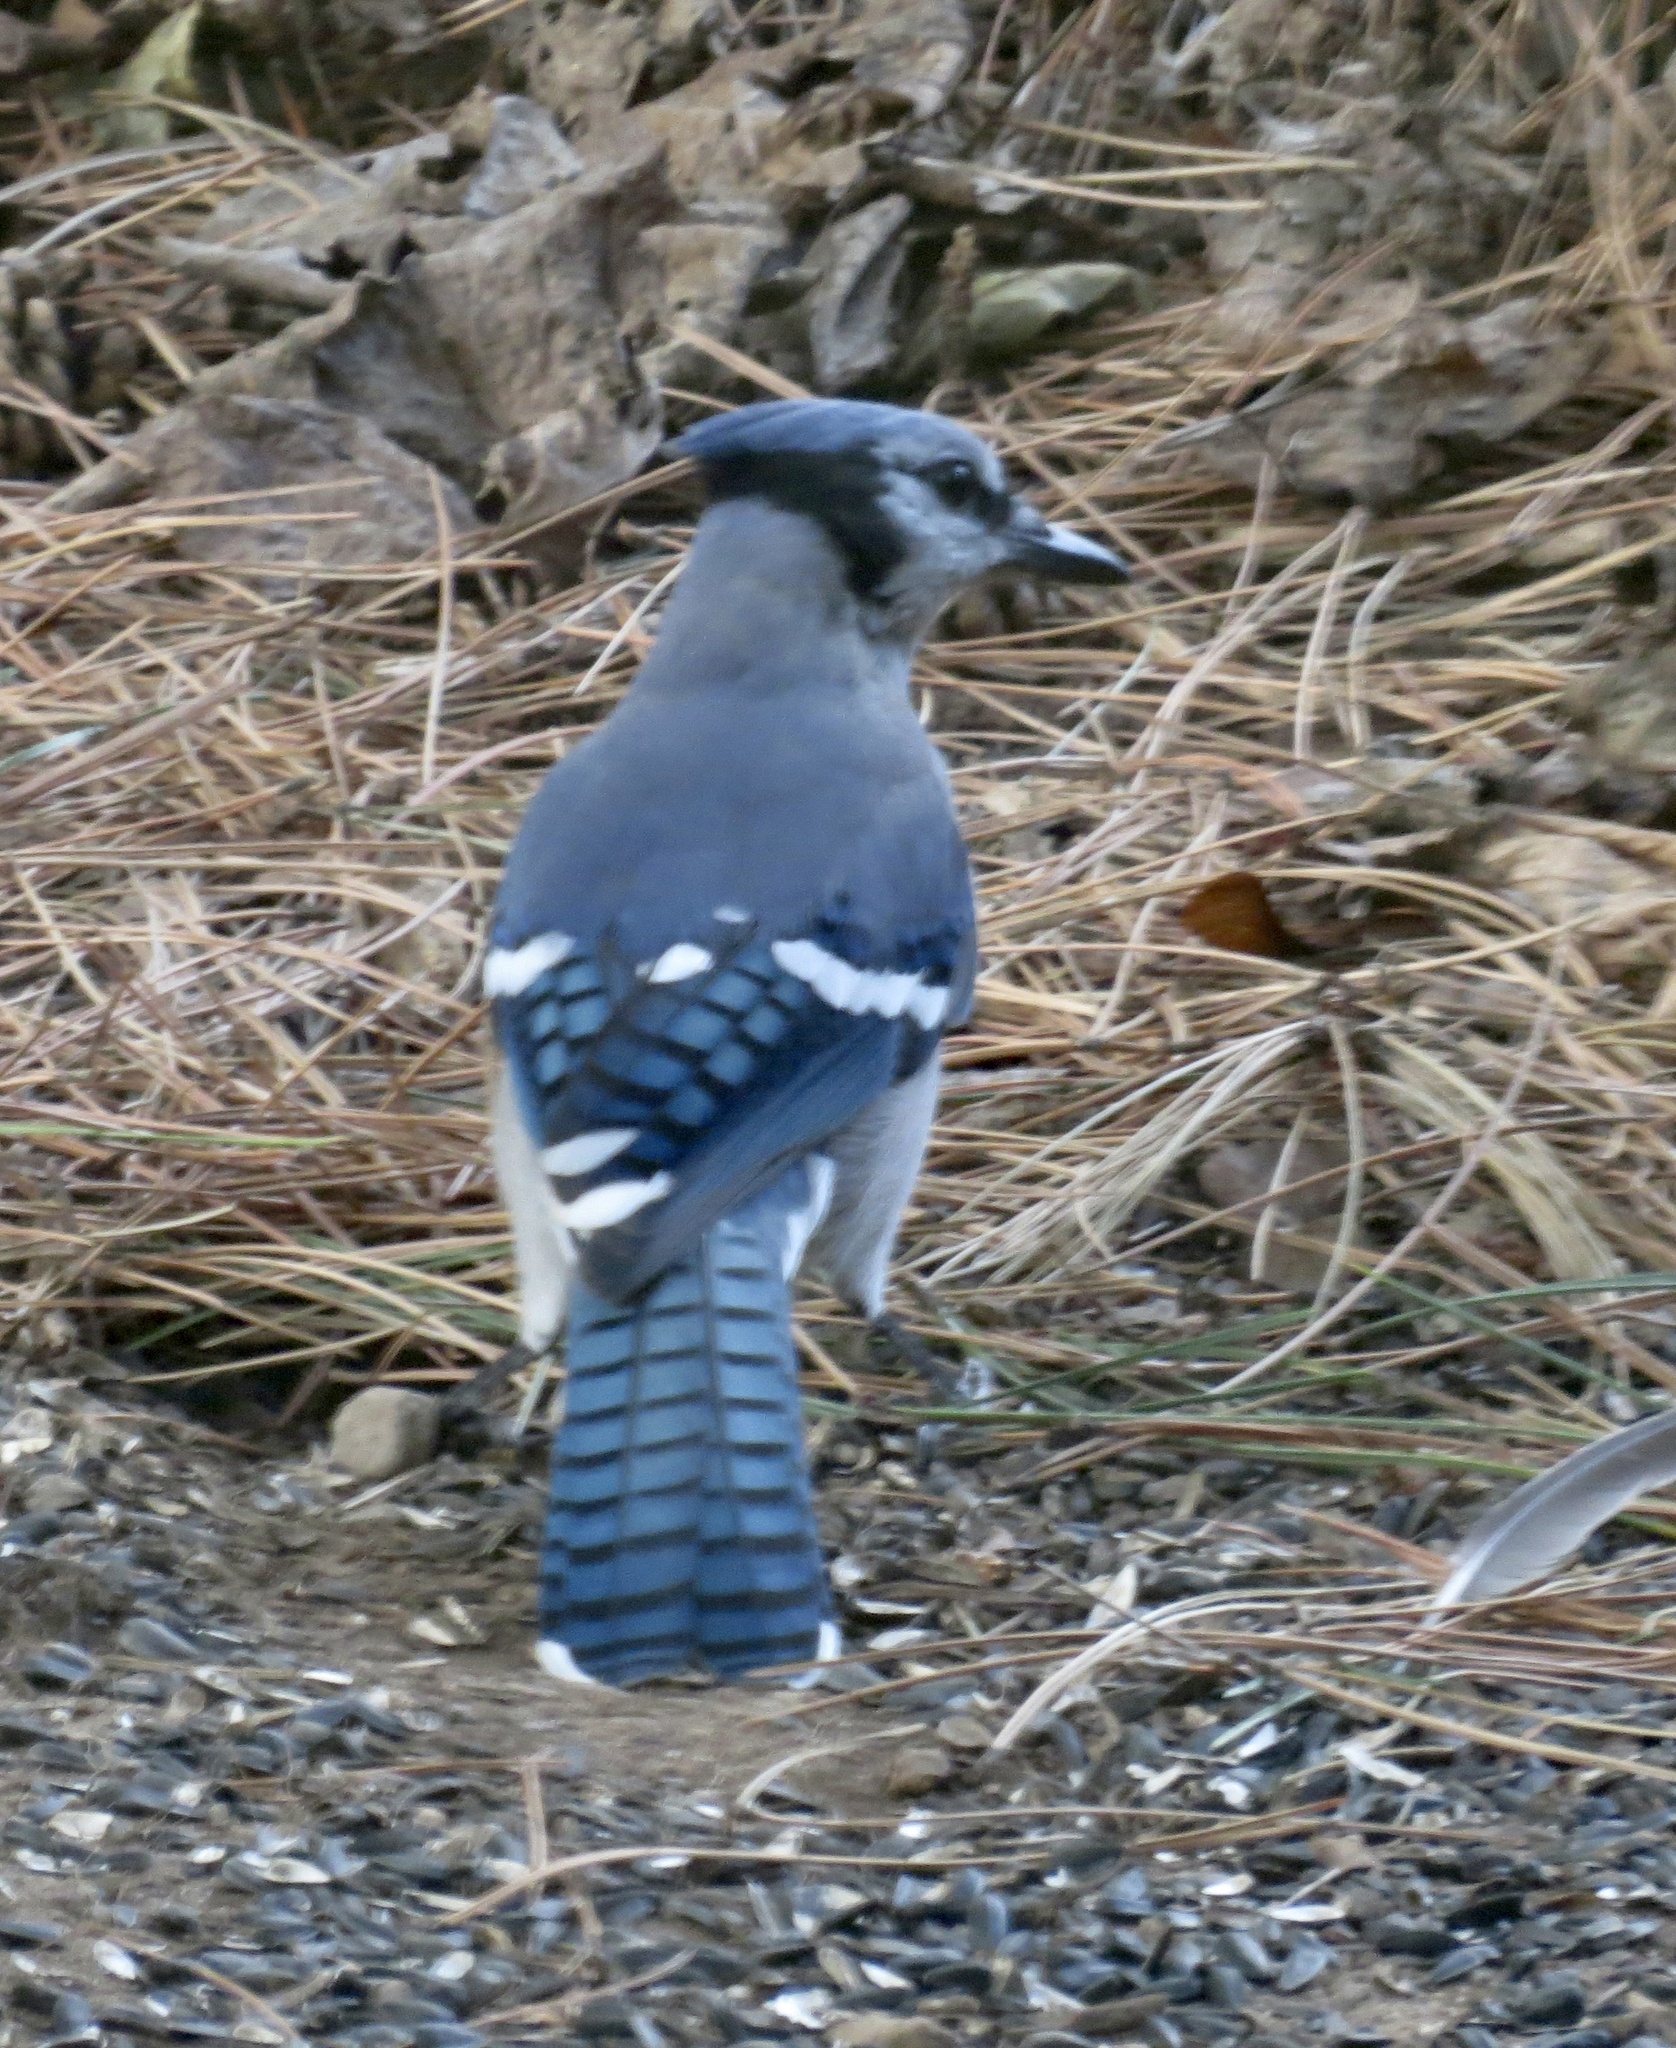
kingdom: Animalia
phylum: Chordata
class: Aves
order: Passeriformes
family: Corvidae
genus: Cyanocitta
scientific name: Cyanocitta cristata
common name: Blue jay
